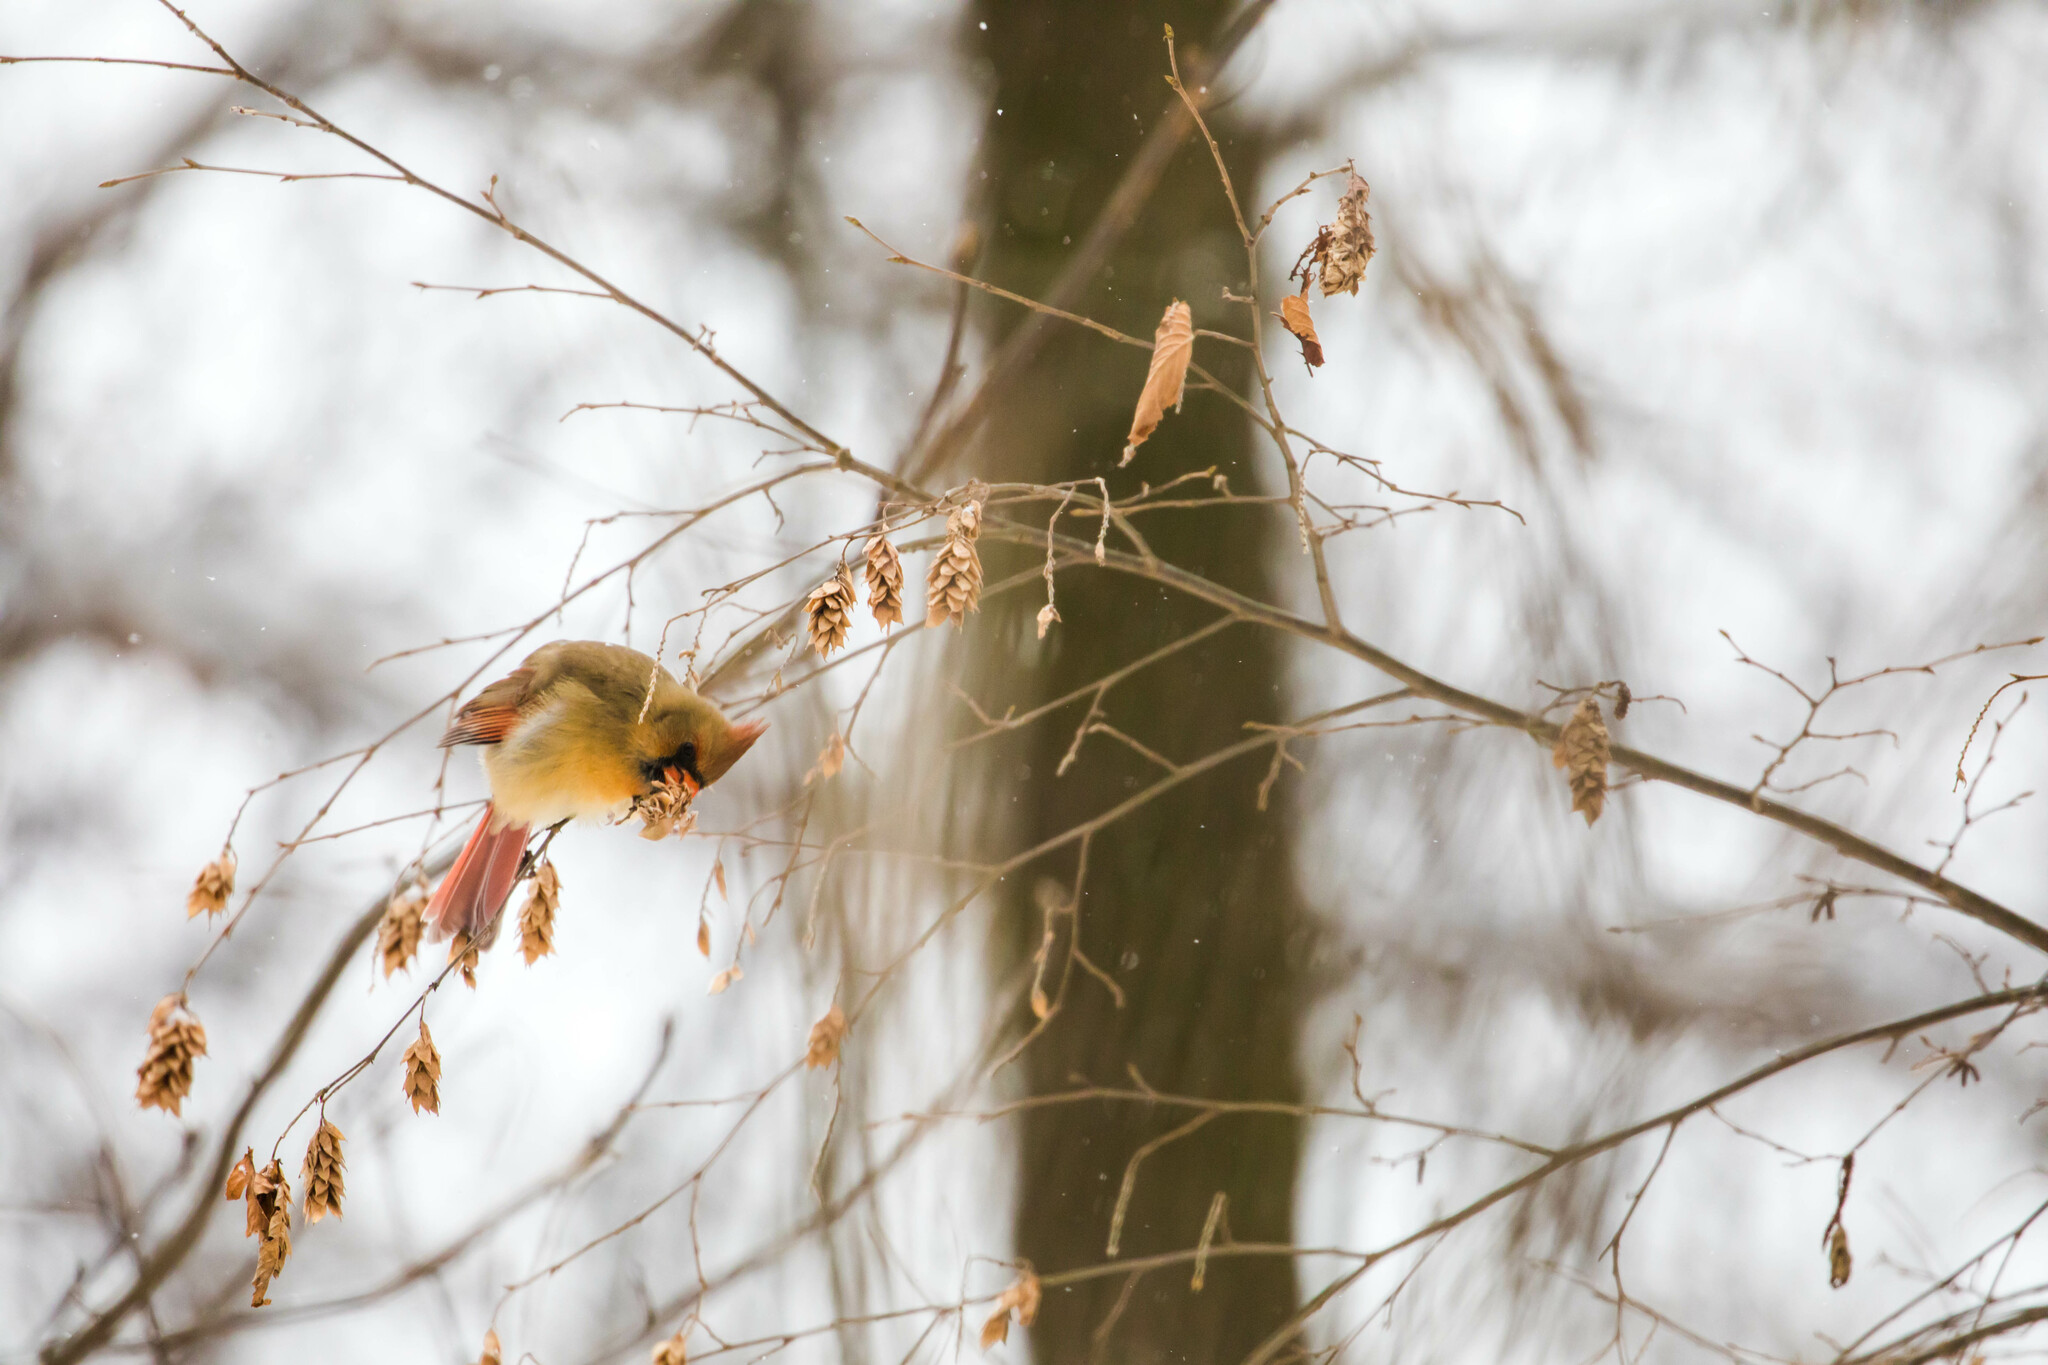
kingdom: Animalia
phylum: Chordata
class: Aves
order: Passeriformes
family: Cardinalidae
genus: Cardinalis
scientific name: Cardinalis cardinalis
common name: Northern cardinal
